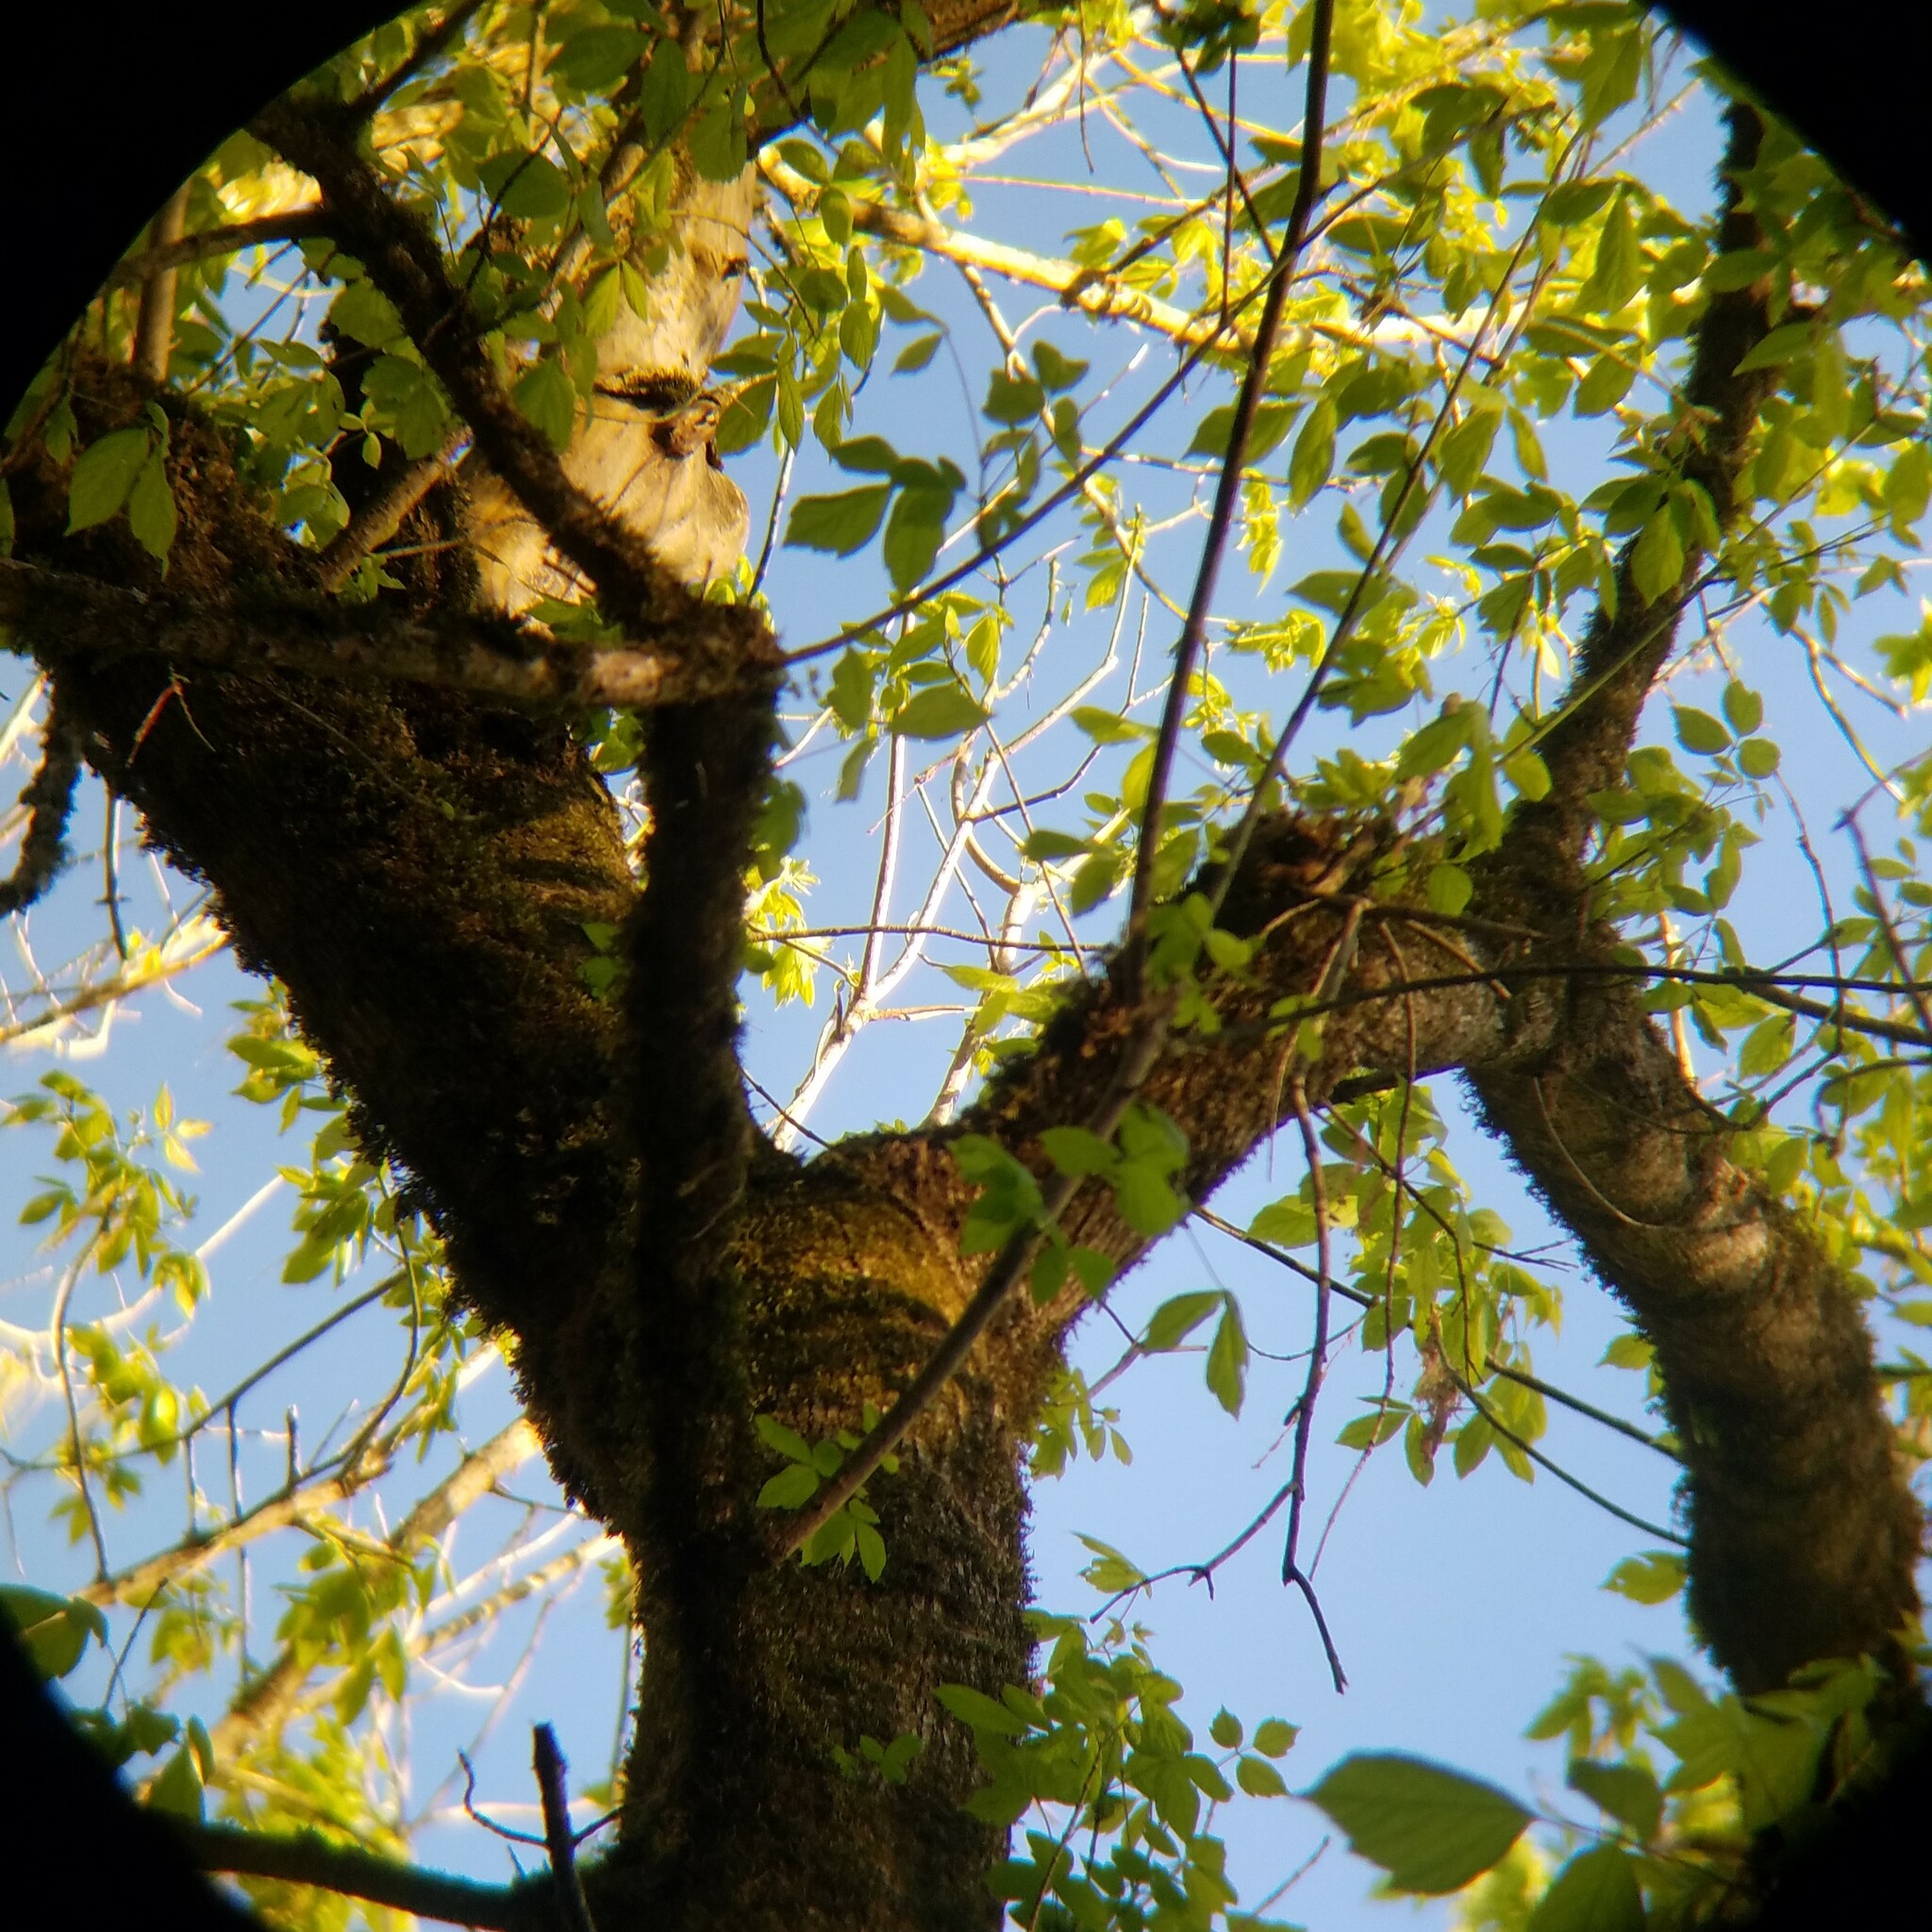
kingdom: Plantae
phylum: Tracheophyta
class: Magnoliopsida
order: Sapindales
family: Sapindaceae
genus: Acer
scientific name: Acer negundo
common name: Ashleaf maple
